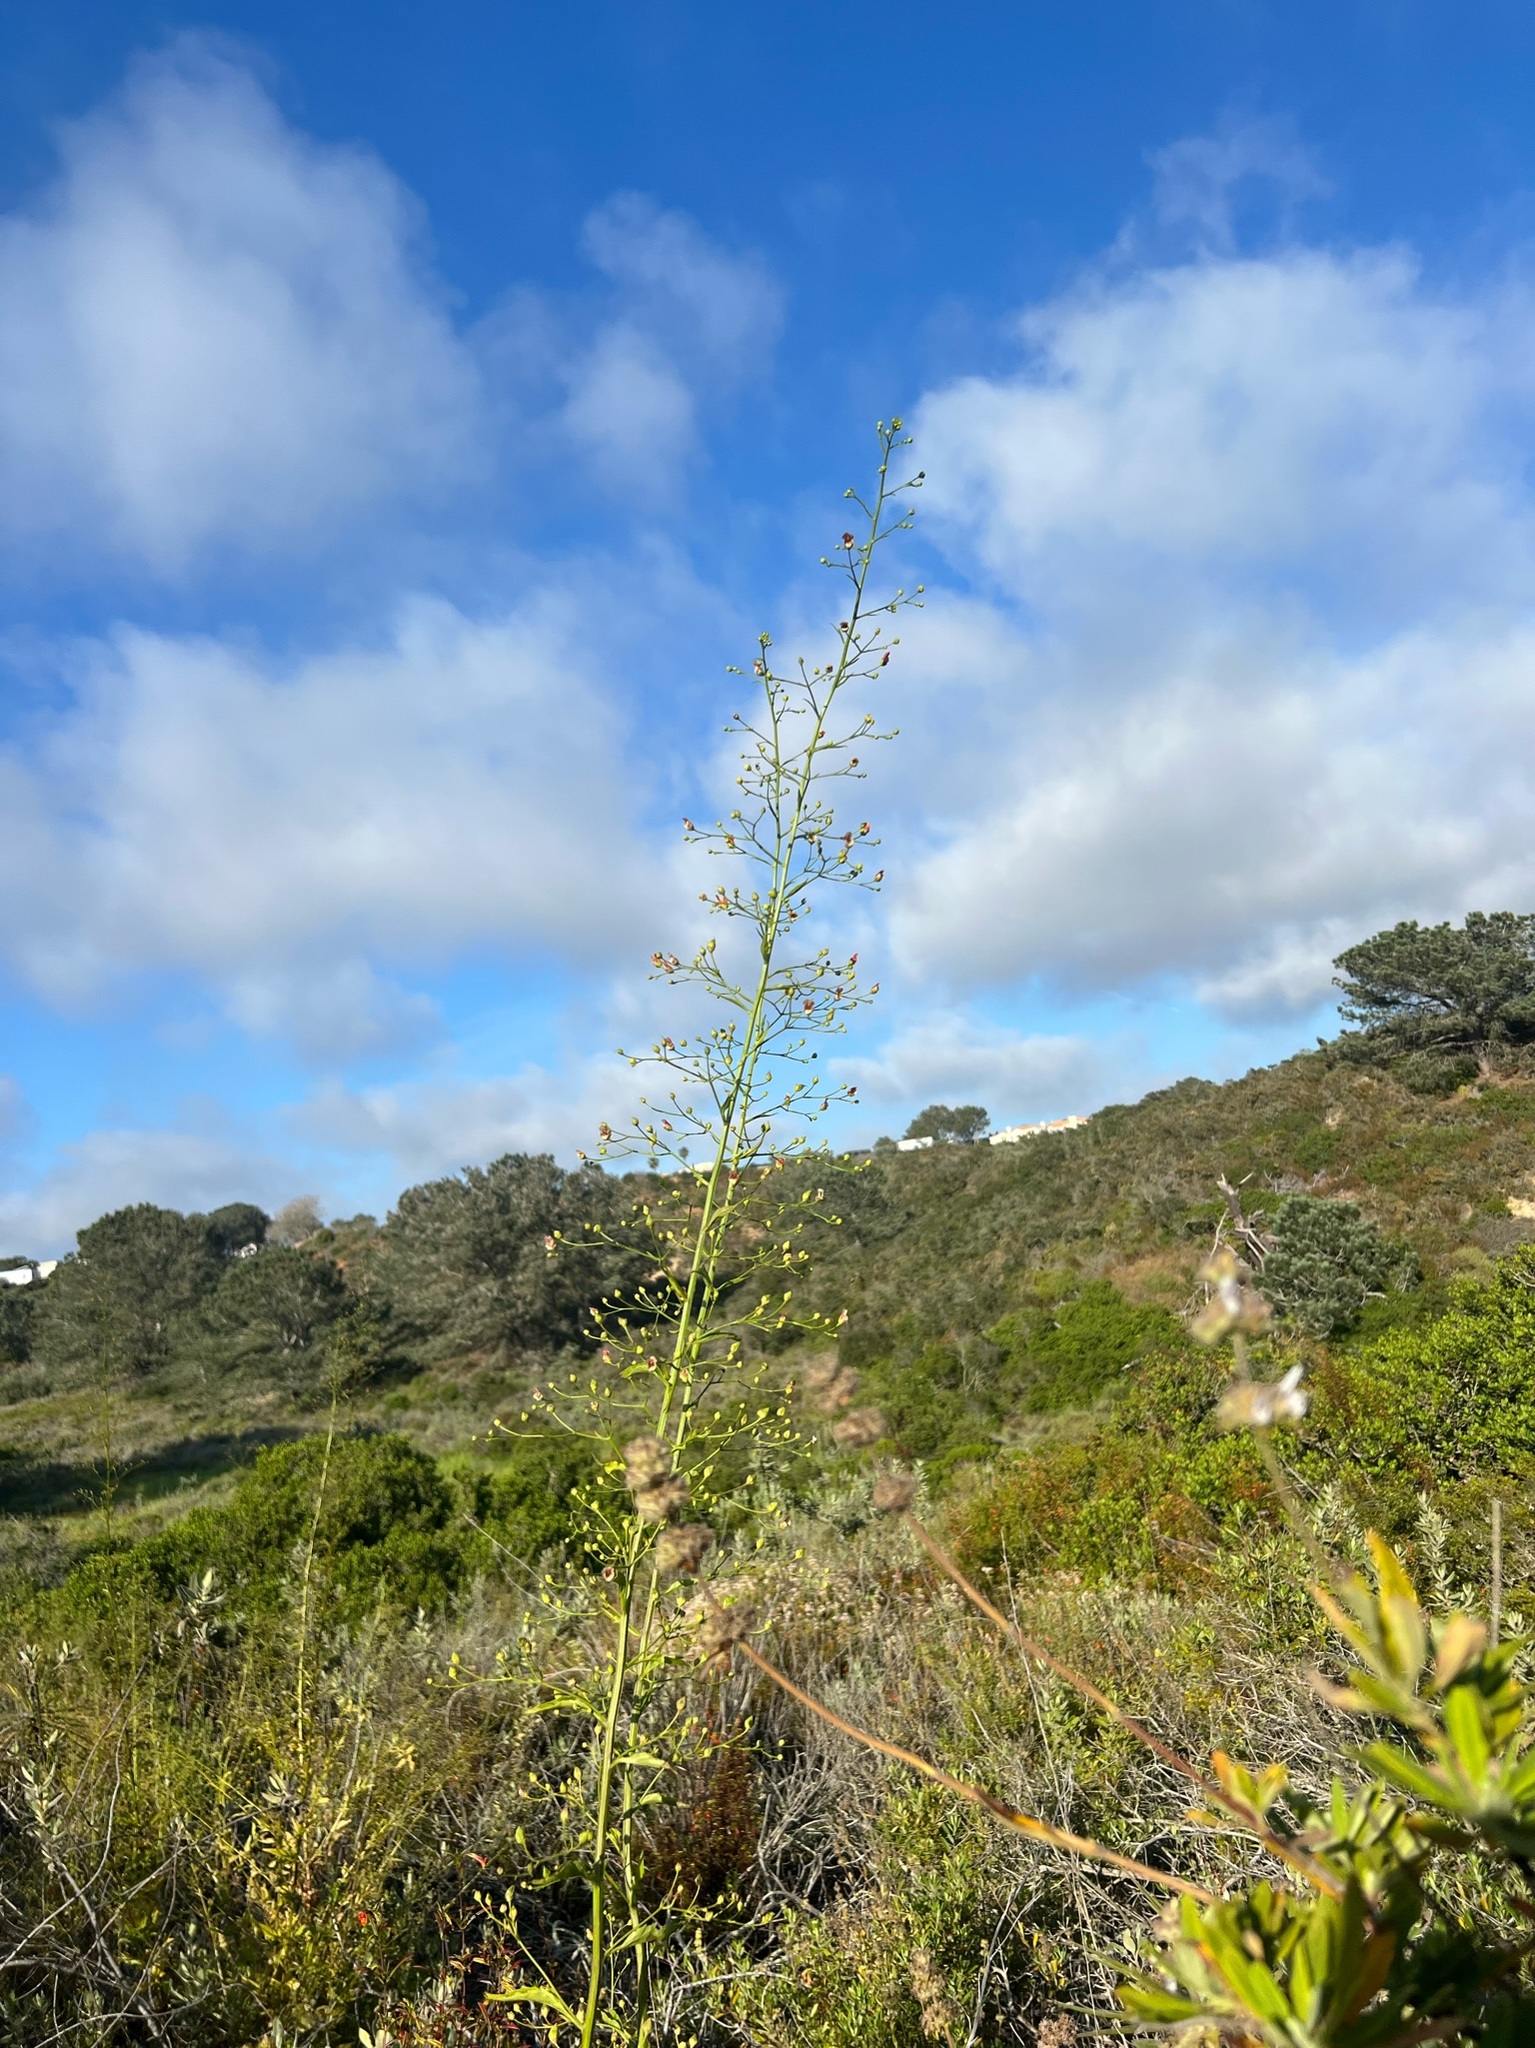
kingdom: Plantae
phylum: Tracheophyta
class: Magnoliopsida
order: Lamiales
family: Scrophulariaceae
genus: Scrophularia
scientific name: Scrophularia californica
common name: California figwort
